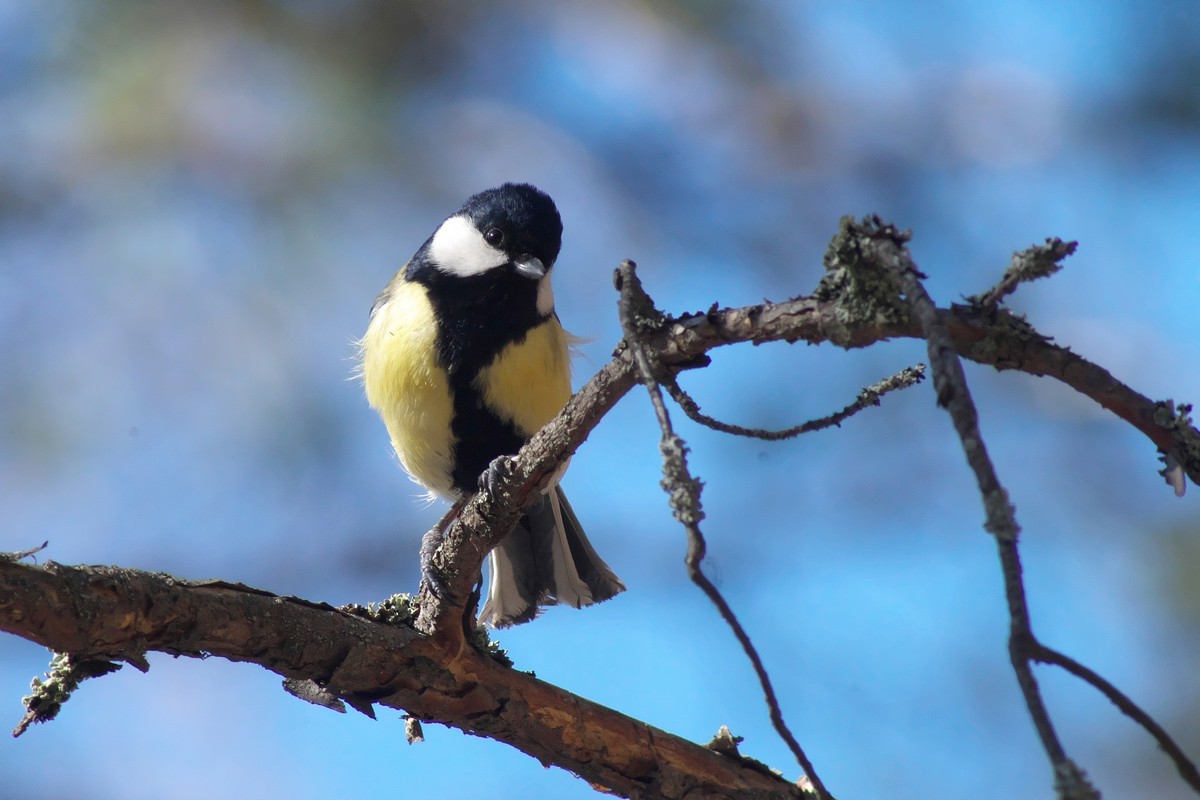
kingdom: Animalia
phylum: Chordata
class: Aves
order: Passeriformes
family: Paridae
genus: Parus
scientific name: Parus major
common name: Great tit
